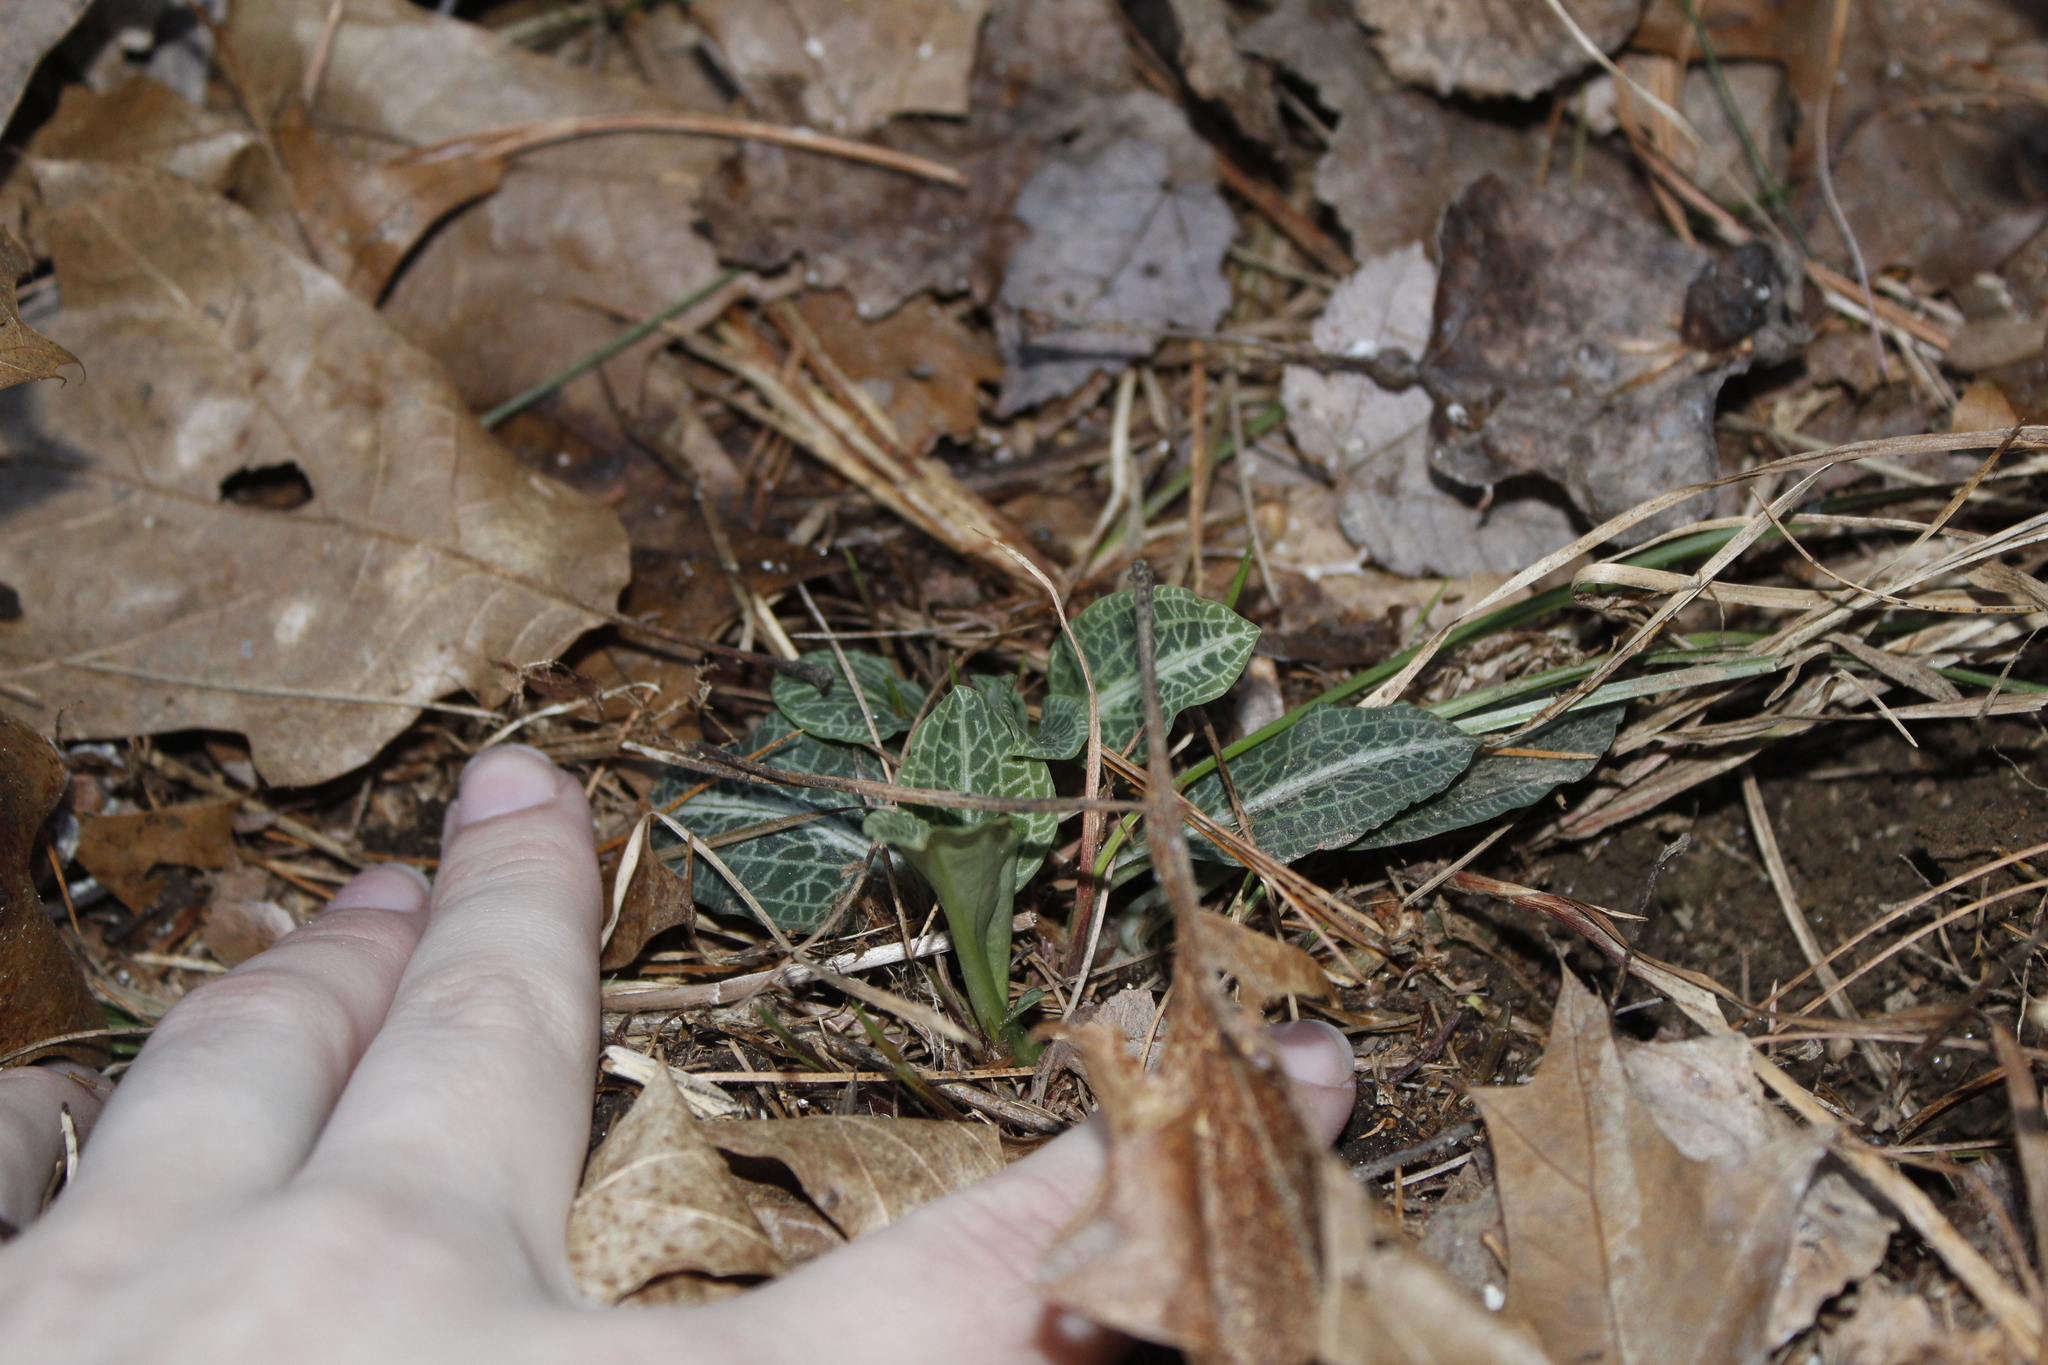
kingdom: Plantae
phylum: Tracheophyta
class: Liliopsida
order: Asparagales
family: Orchidaceae
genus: Goodyera
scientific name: Goodyera pubescens
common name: Downy rattlesnake-plantain
